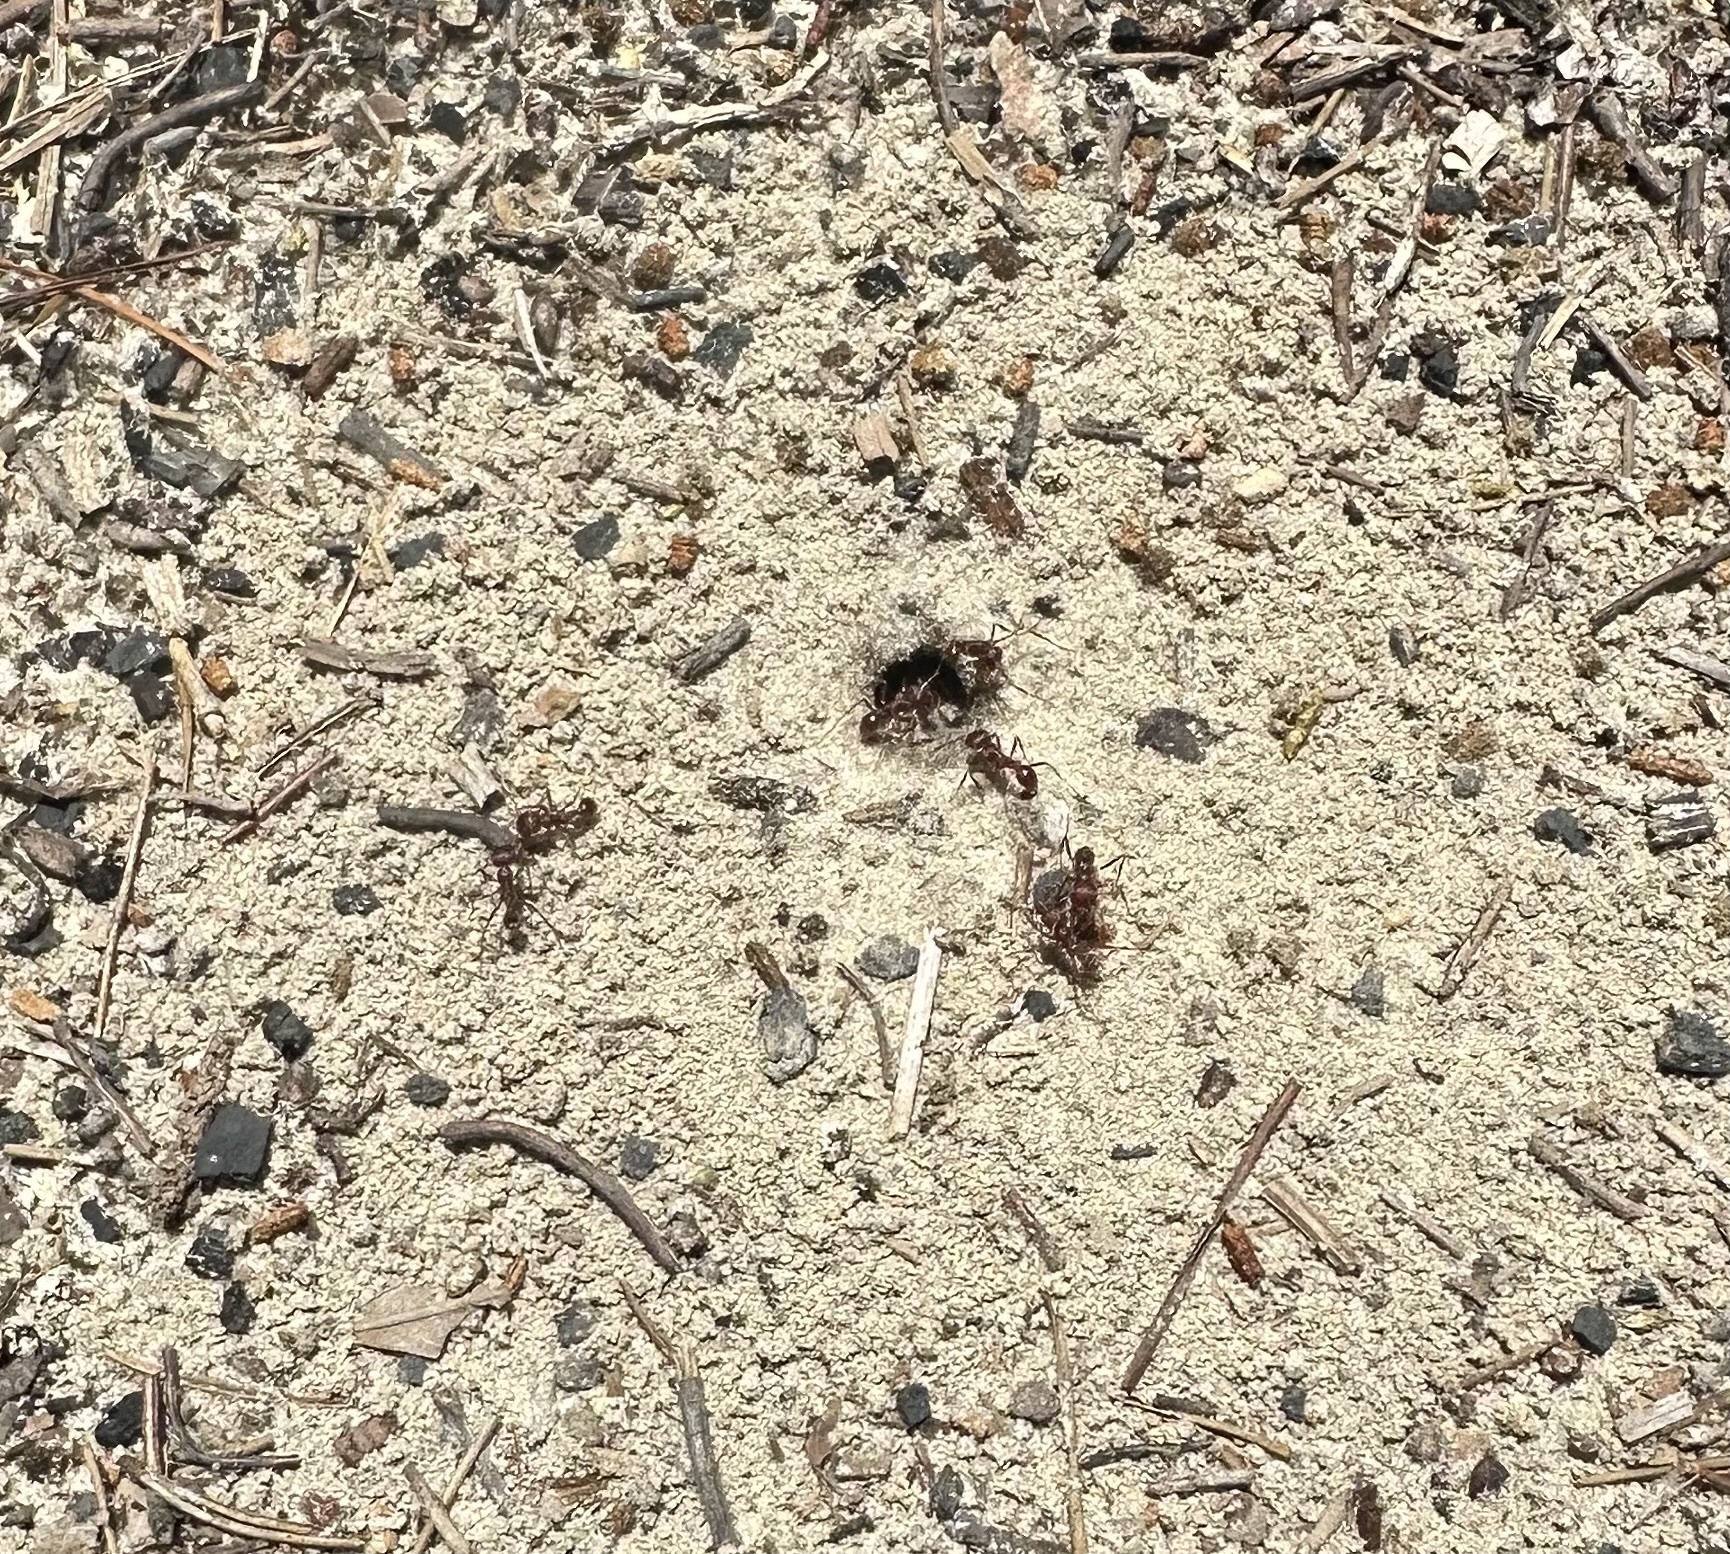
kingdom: Animalia
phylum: Arthropoda
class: Insecta
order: Hymenoptera
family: Formicidae
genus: Pogonomyrmex
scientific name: Pogonomyrmex badius
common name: Florida harvester ant
